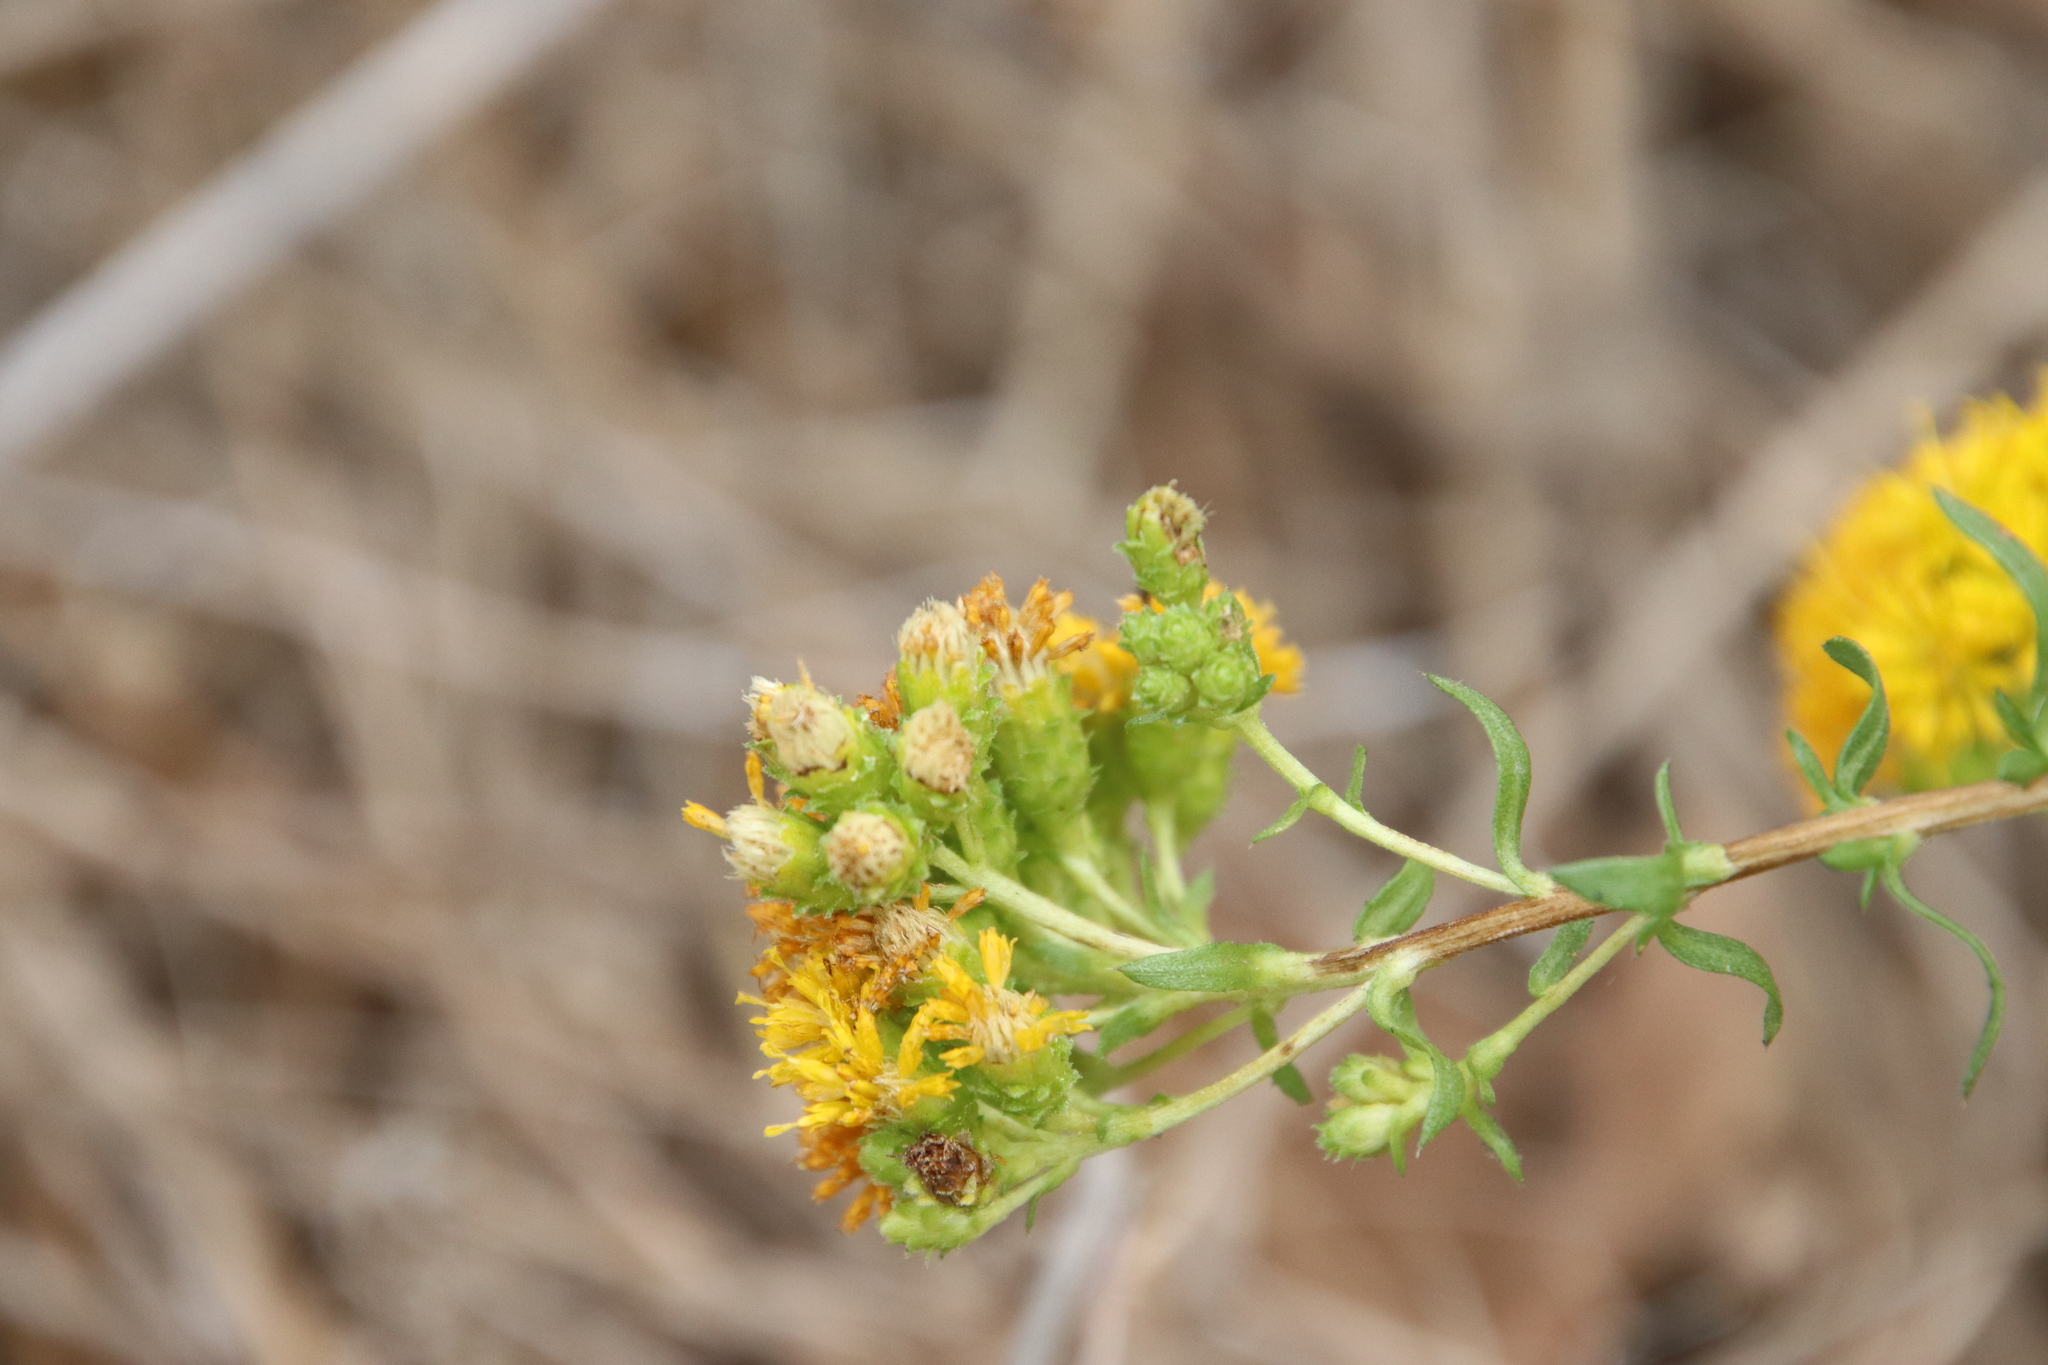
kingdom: Plantae
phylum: Tracheophyta
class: Magnoliopsida
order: Asterales
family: Asteraceae
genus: Isocoma
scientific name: Isocoma menziesii
